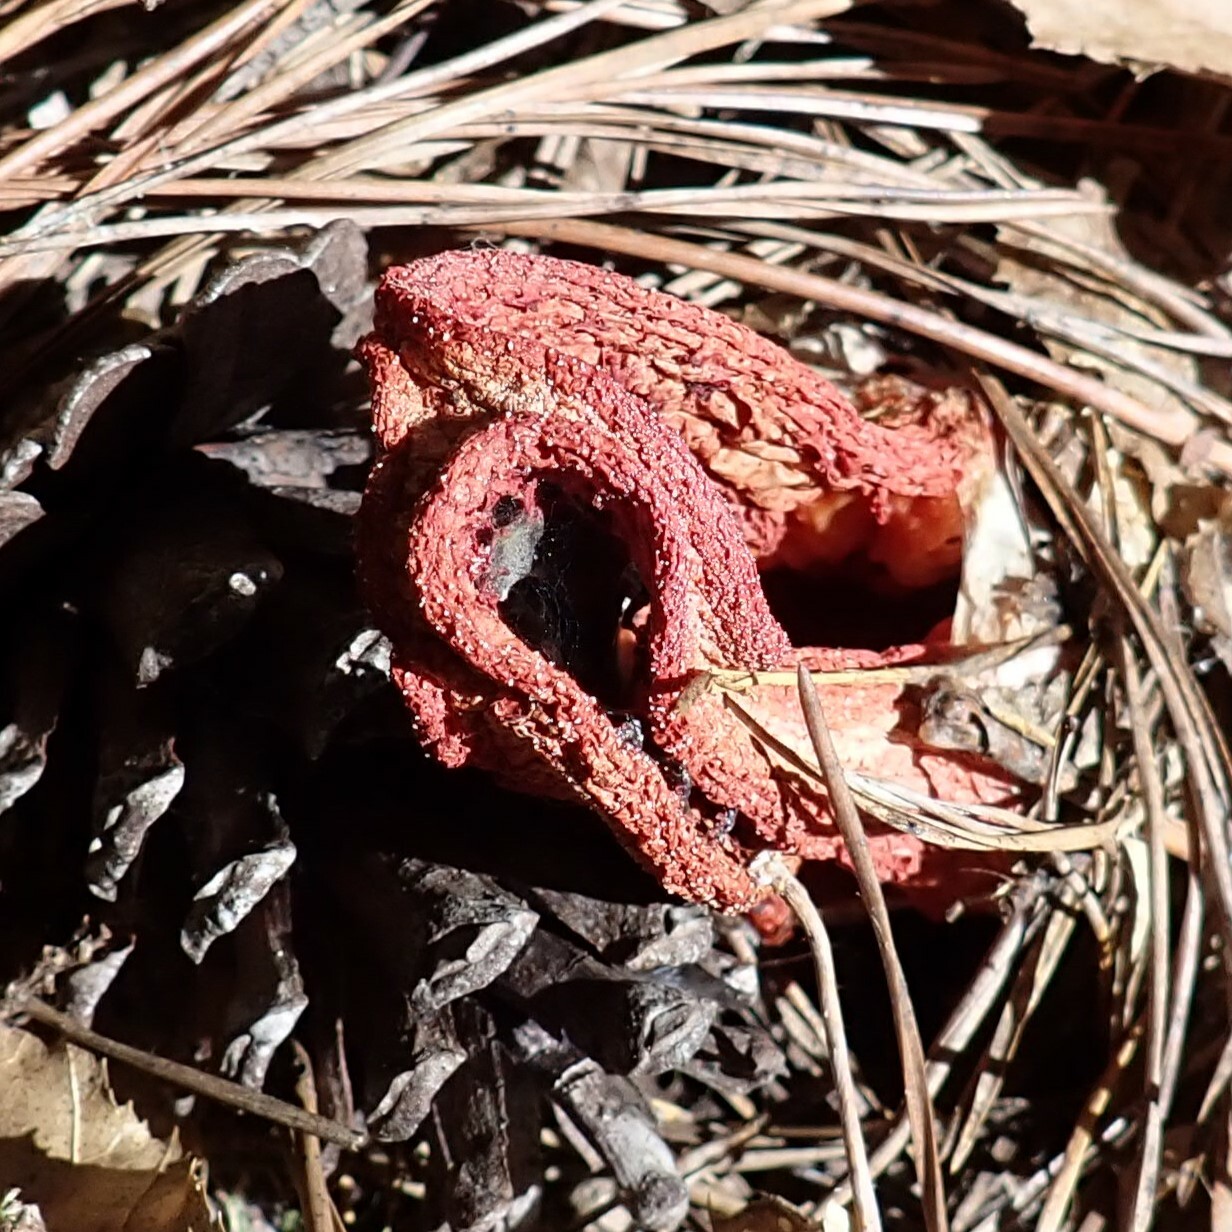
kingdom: Fungi
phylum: Basidiomycota
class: Agaricomycetes
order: Phallales
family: Phallaceae
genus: Clathrus
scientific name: Clathrus columnatus
